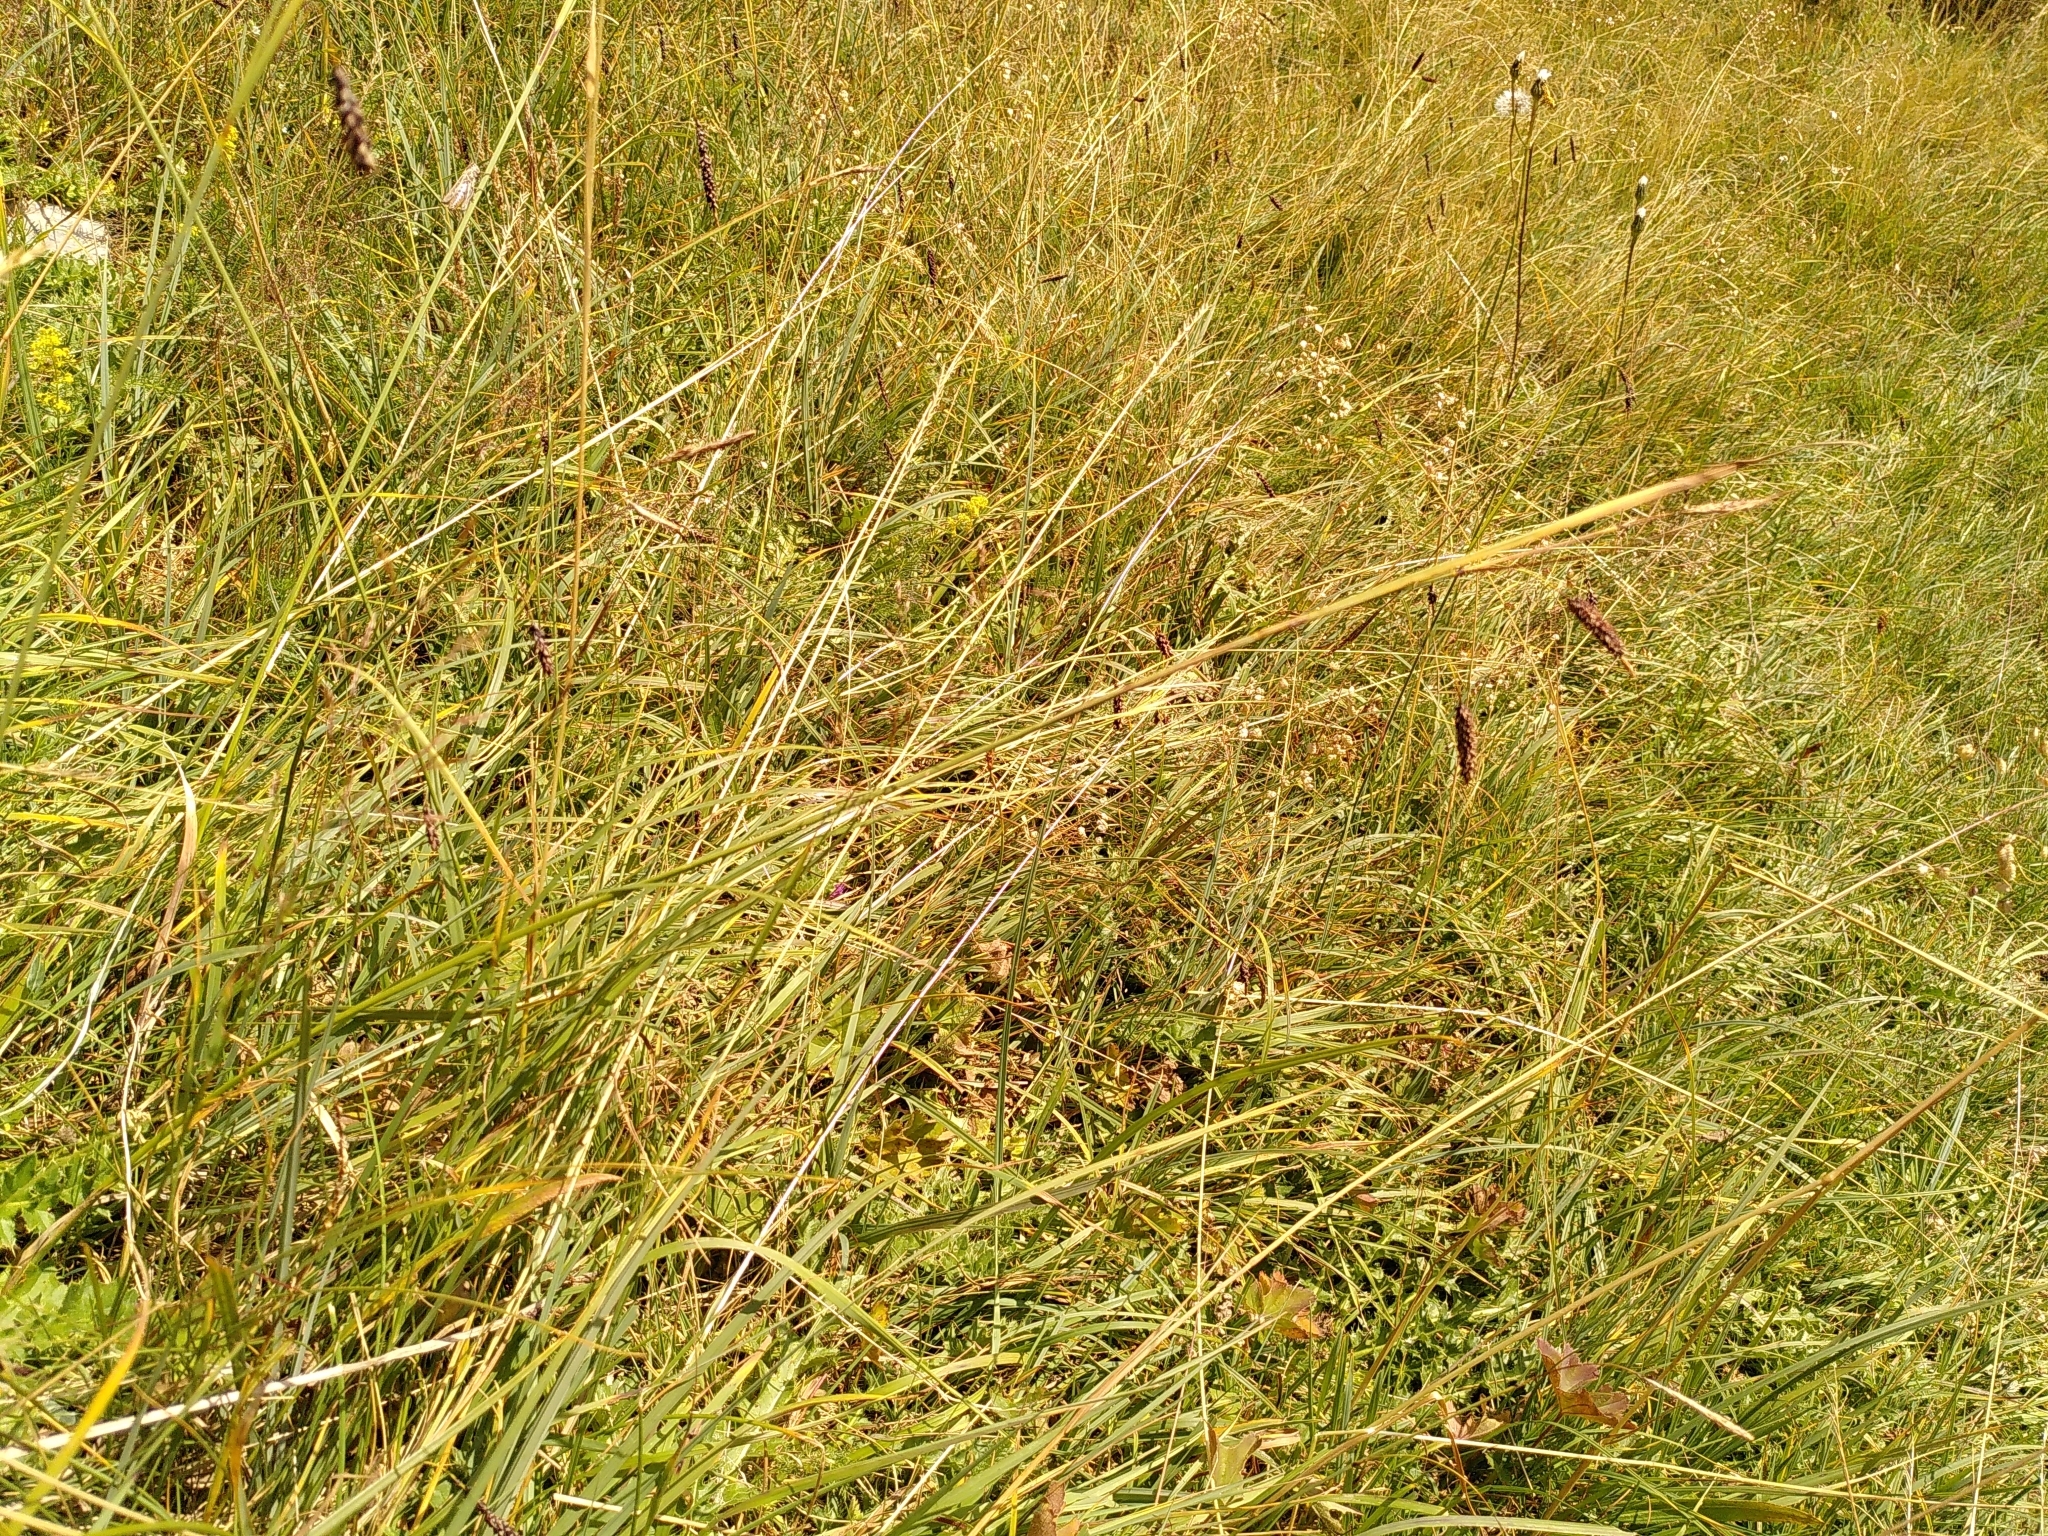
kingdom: Plantae
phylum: Tracheophyta
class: Liliopsida
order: Poales
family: Cyperaceae
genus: Carex
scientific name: Carex flacca
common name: Glaucous sedge
